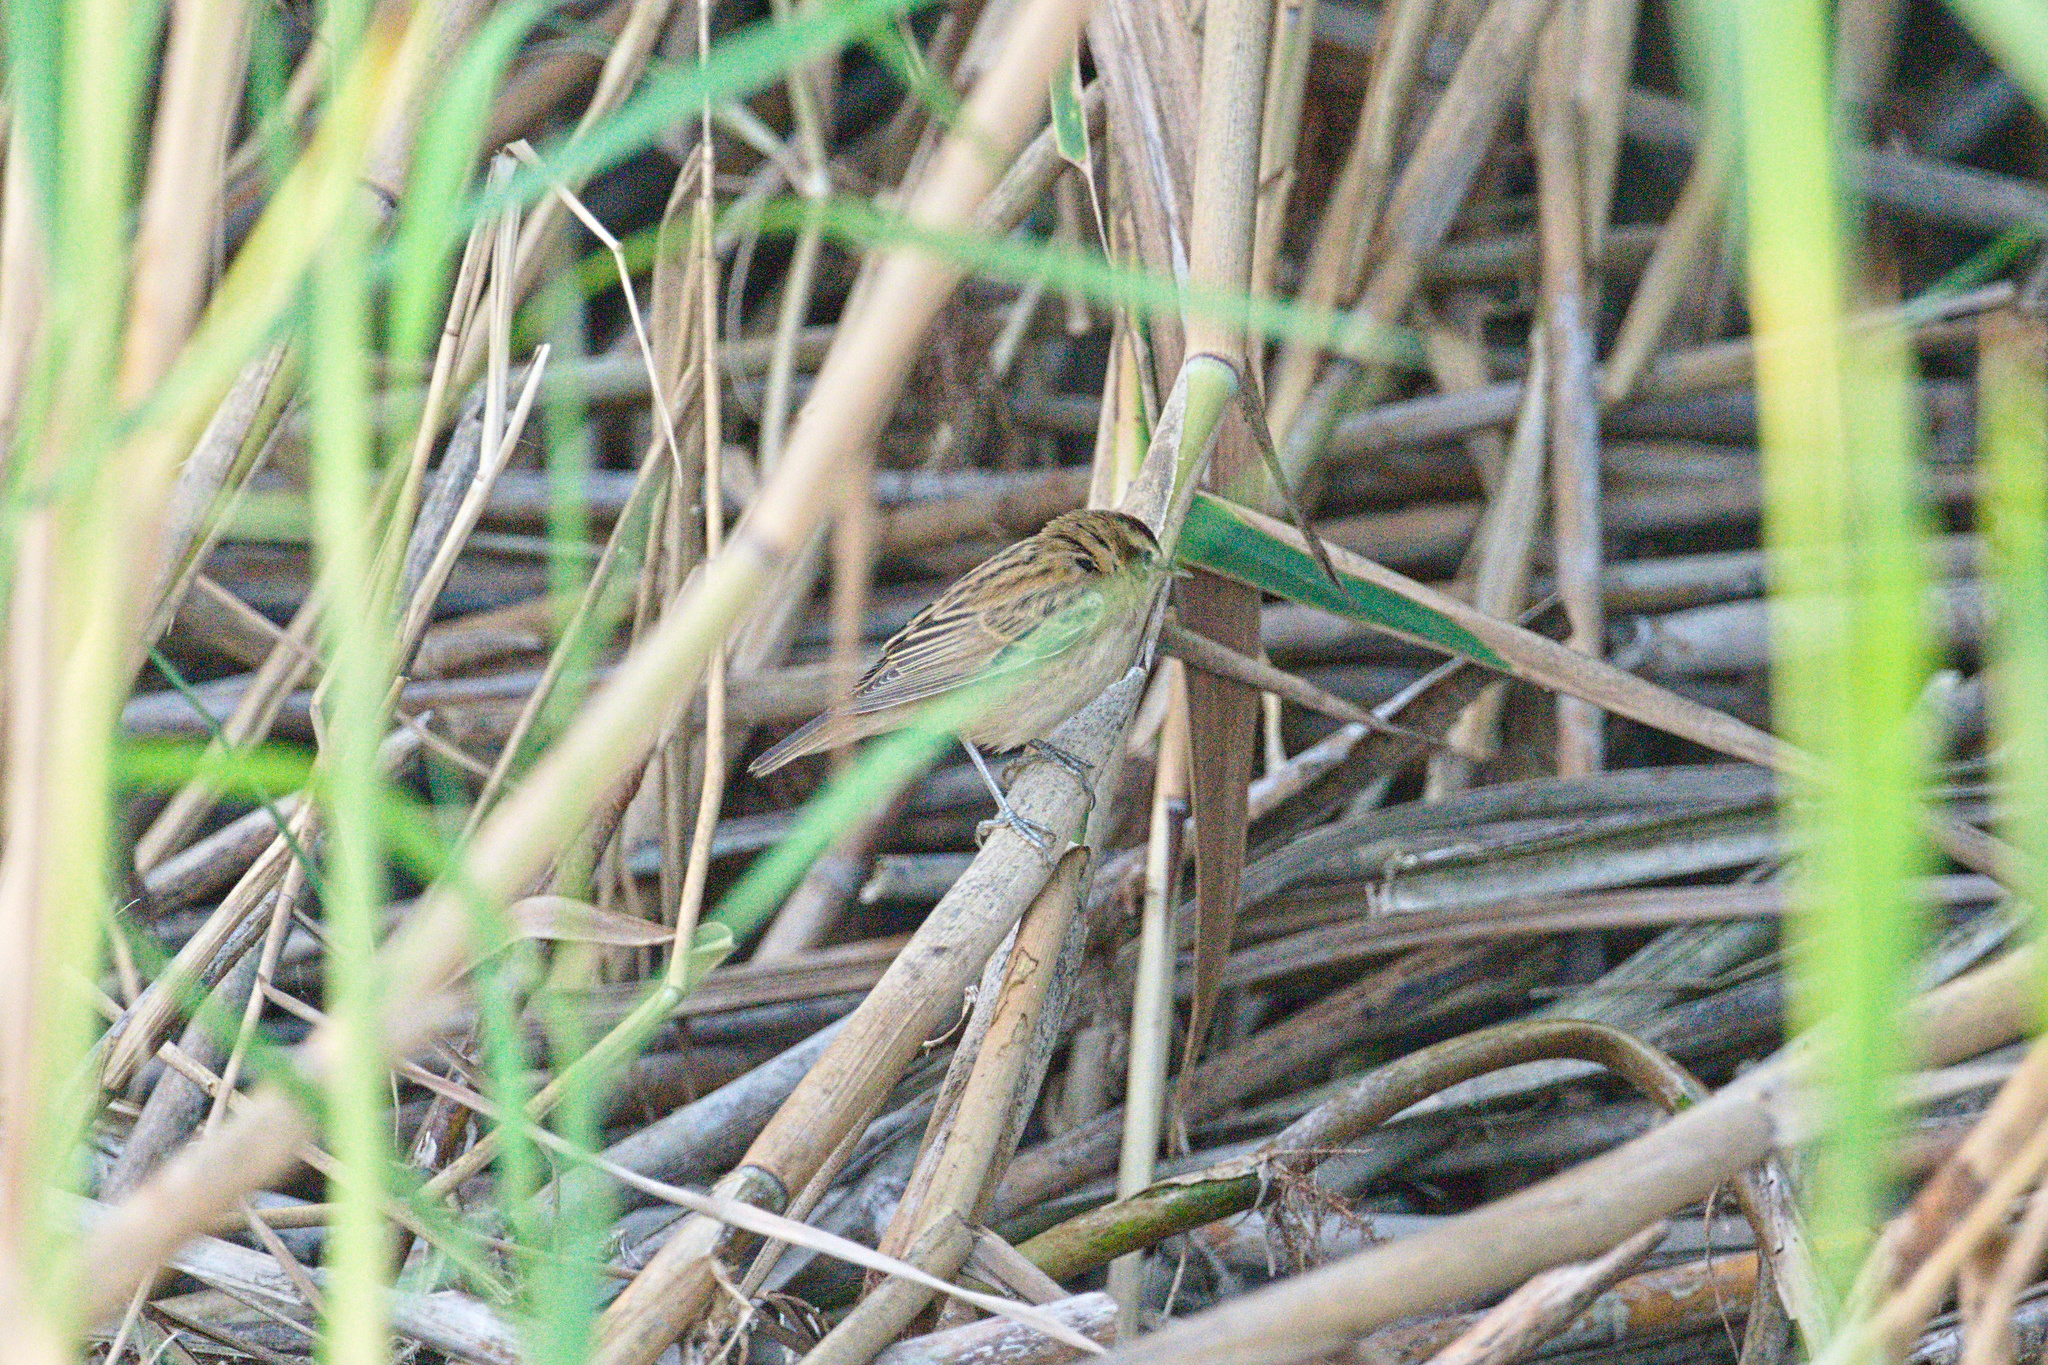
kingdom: Animalia
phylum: Chordata
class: Aves
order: Passeriformes
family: Acrocephalidae
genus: Acrocephalus
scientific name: Acrocephalus schoenobaenus
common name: Sedge warbler
